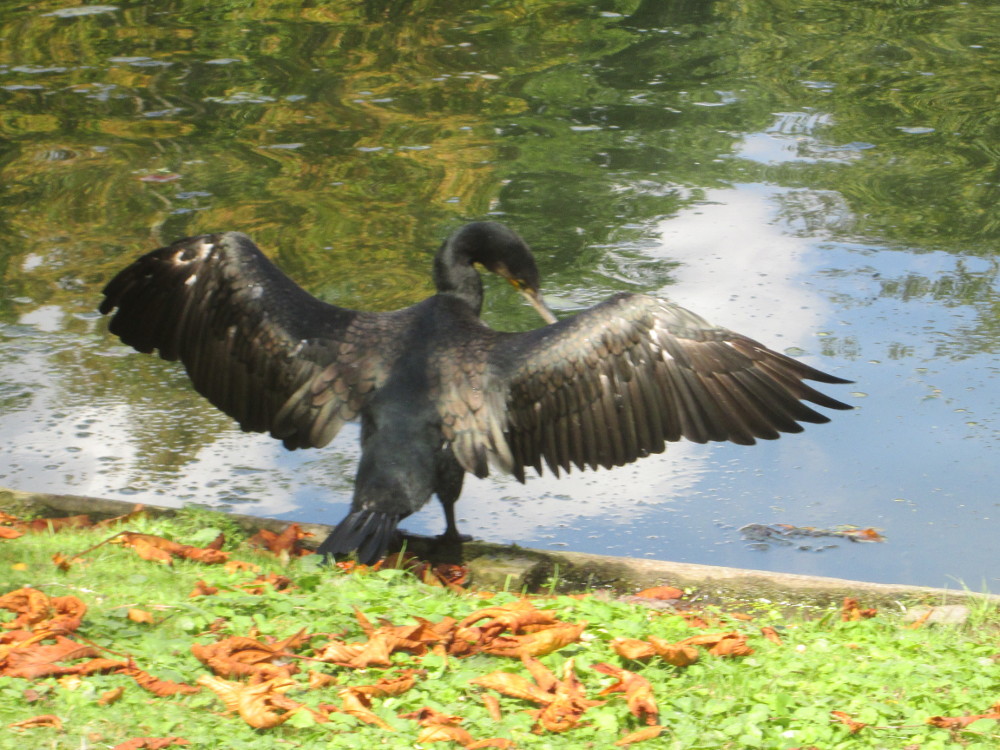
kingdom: Animalia
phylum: Chordata
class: Aves
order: Suliformes
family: Phalacrocoracidae
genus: Phalacrocorax
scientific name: Phalacrocorax carbo
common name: Great cormorant
